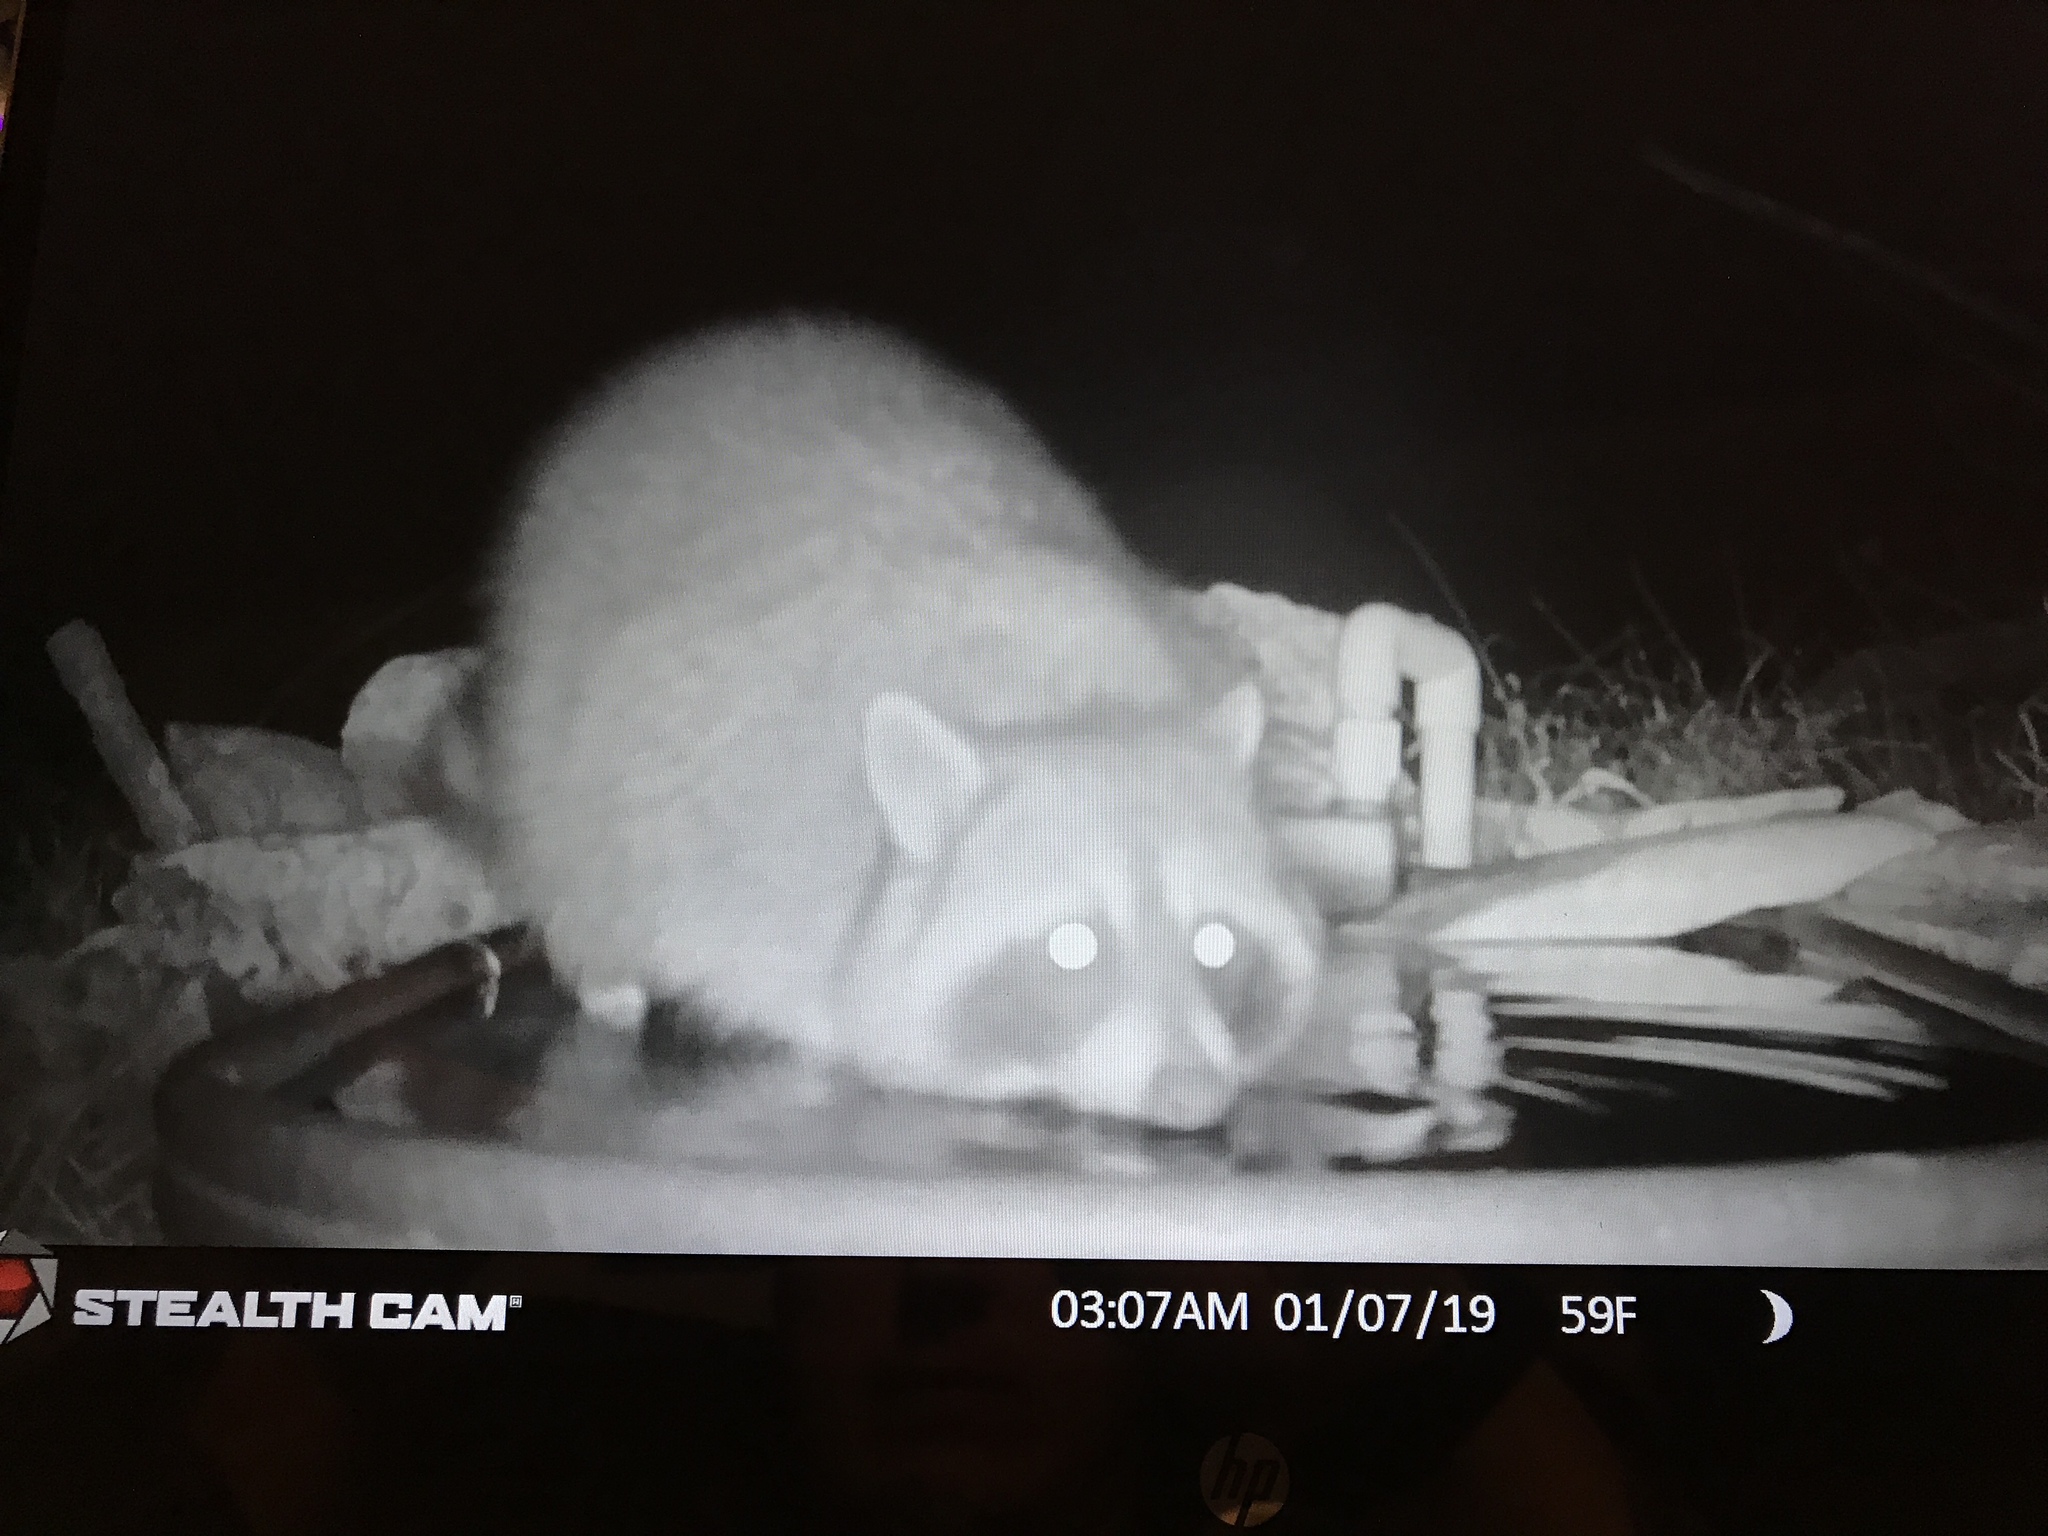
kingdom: Animalia
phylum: Chordata
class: Mammalia
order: Carnivora
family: Procyonidae
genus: Procyon
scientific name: Procyon lotor
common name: Raccoon
